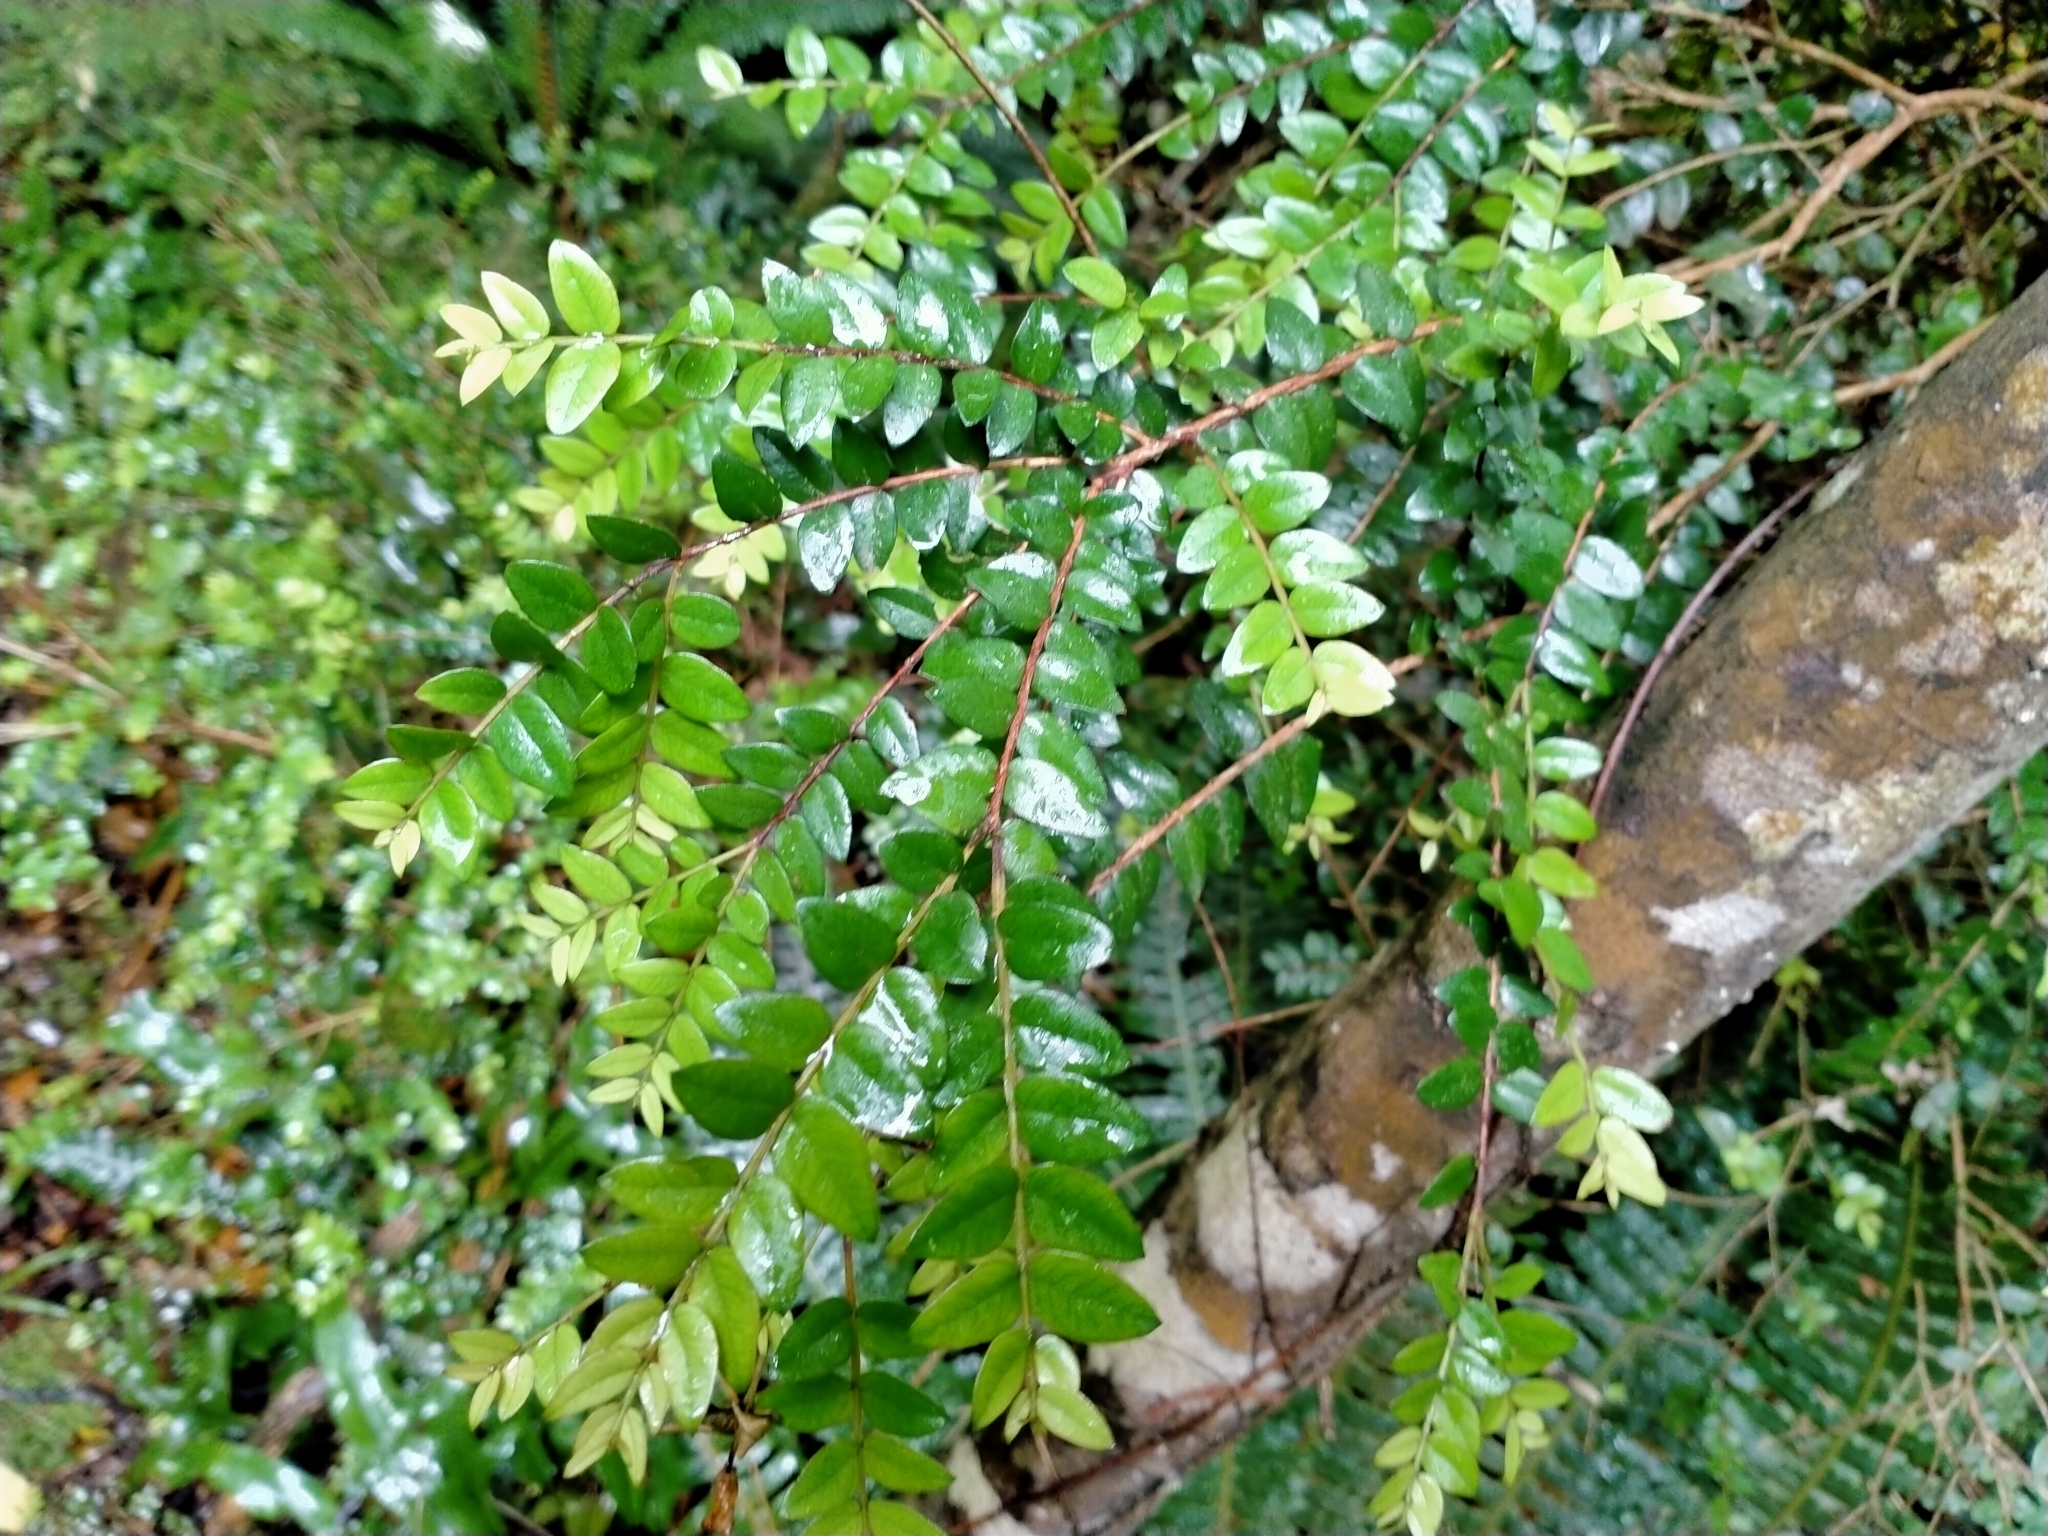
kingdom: Plantae
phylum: Tracheophyta
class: Magnoliopsida
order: Myrtales
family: Myrtaceae
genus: Metrosideros
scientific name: Metrosideros diffusa
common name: Small ratavine
